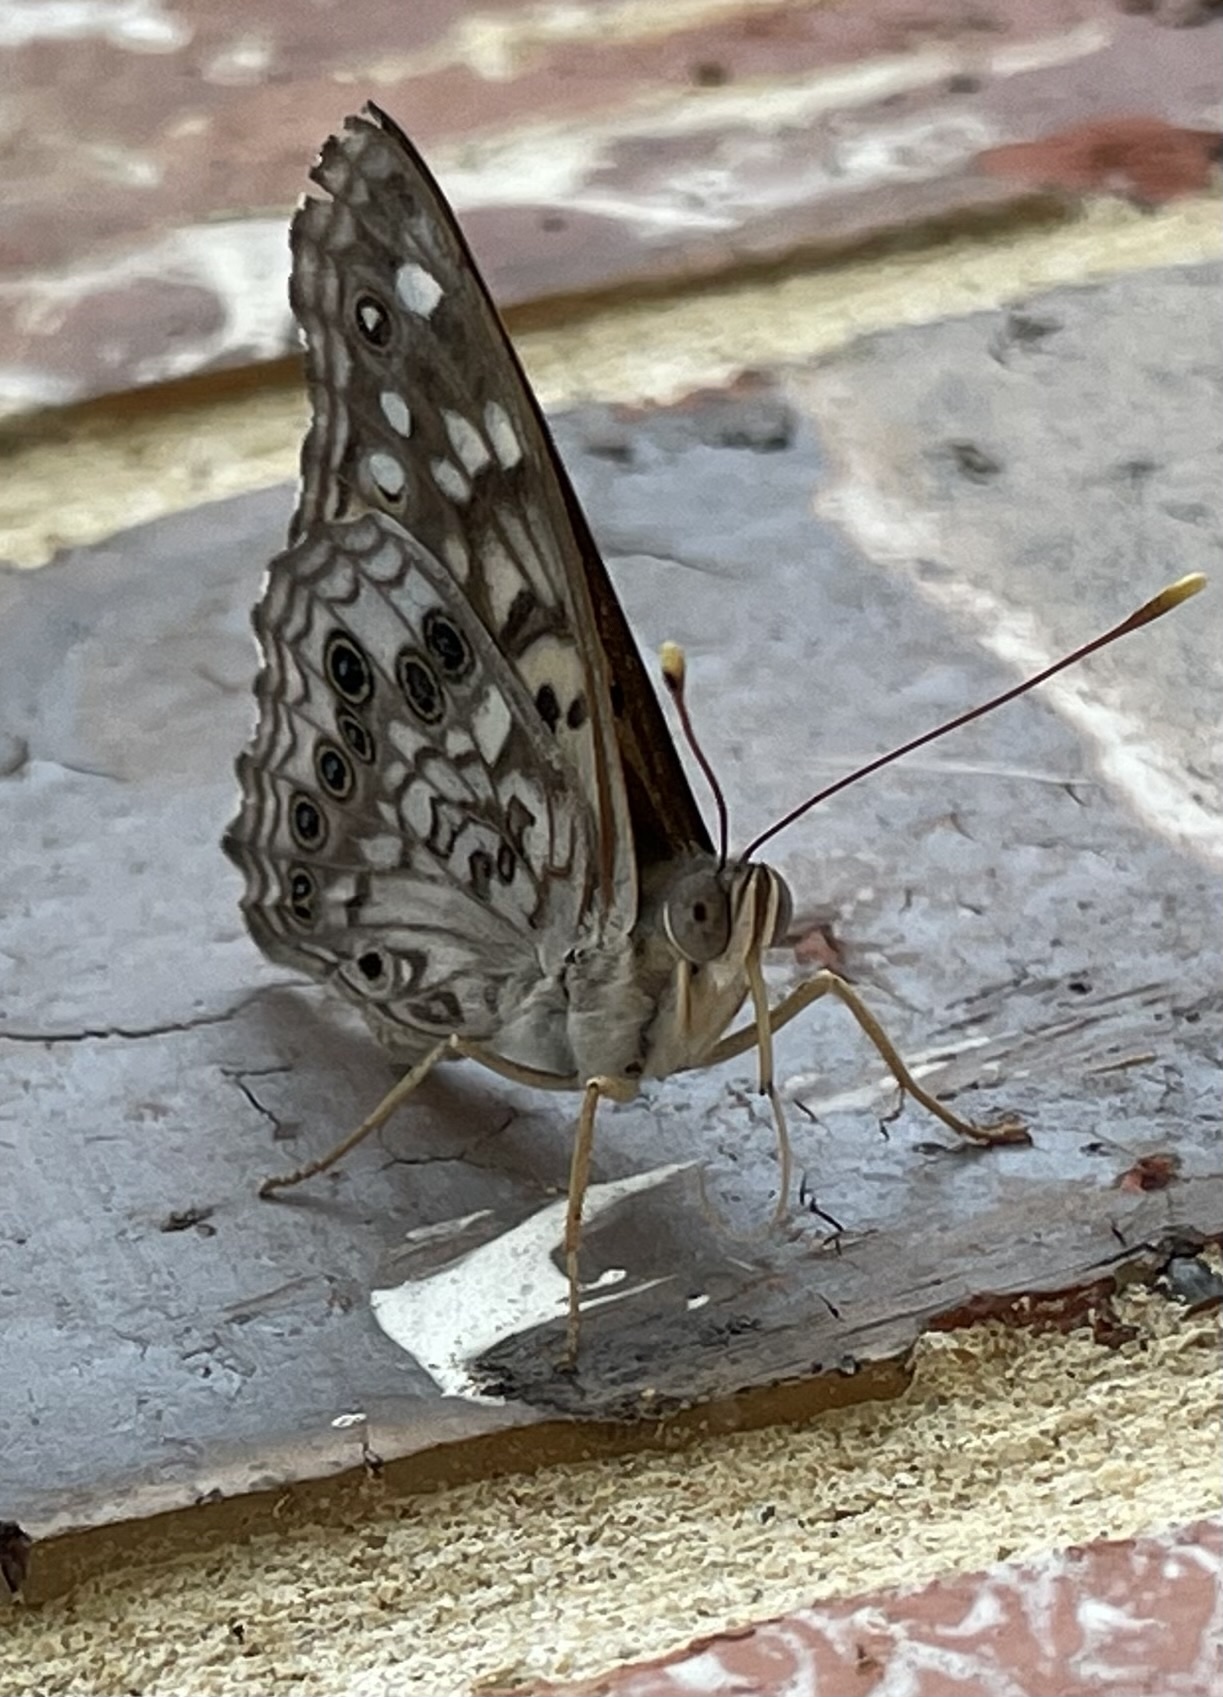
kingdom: Animalia
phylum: Arthropoda
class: Insecta
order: Lepidoptera
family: Nymphalidae
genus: Asterocampa
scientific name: Asterocampa celtis
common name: Hackberry emperor
